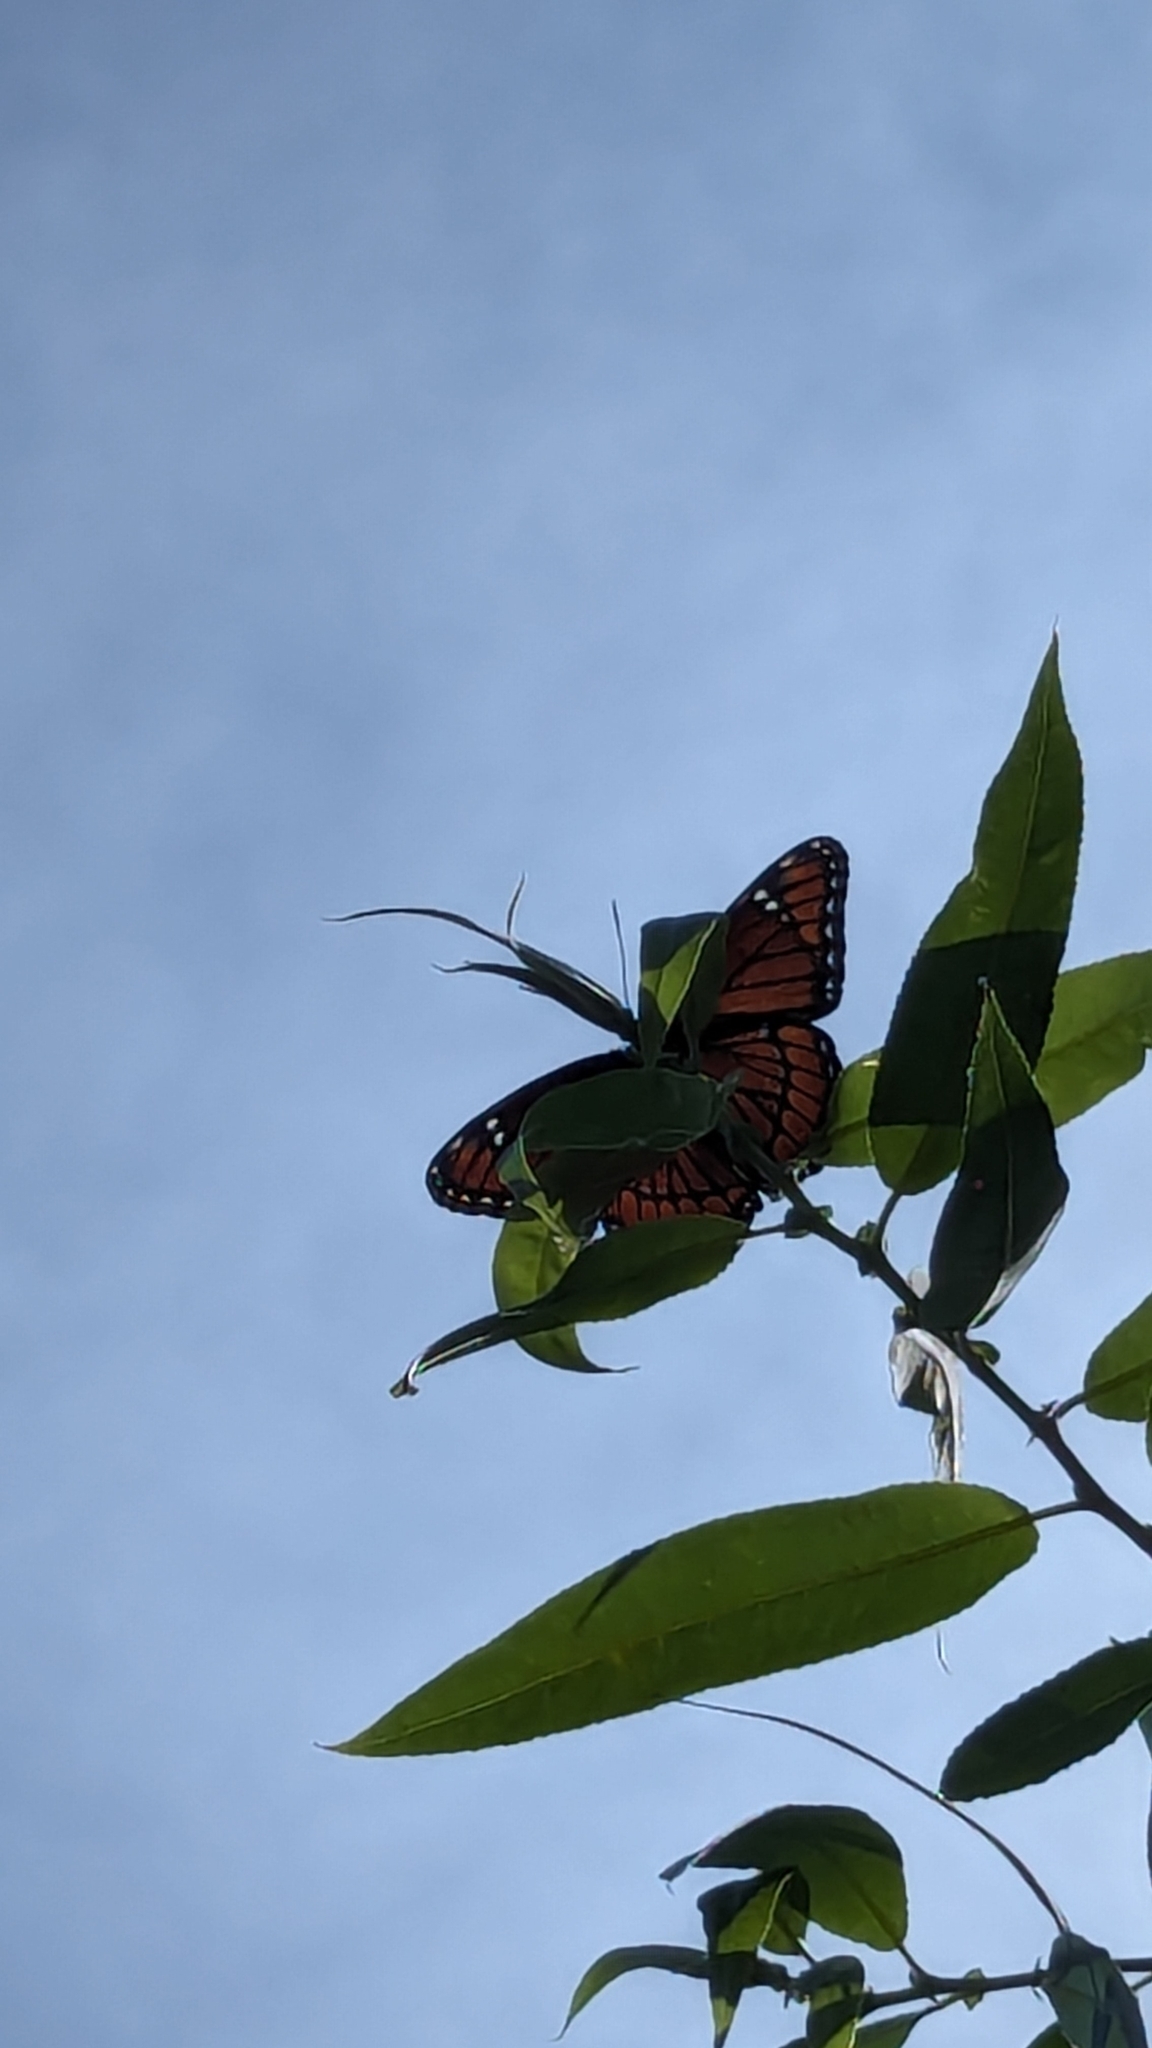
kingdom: Animalia
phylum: Arthropoda
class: Insecta
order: Lepidoptera
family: Nymphalidae
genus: Limenitis
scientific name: Limenitis archippus
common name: Viceroy
